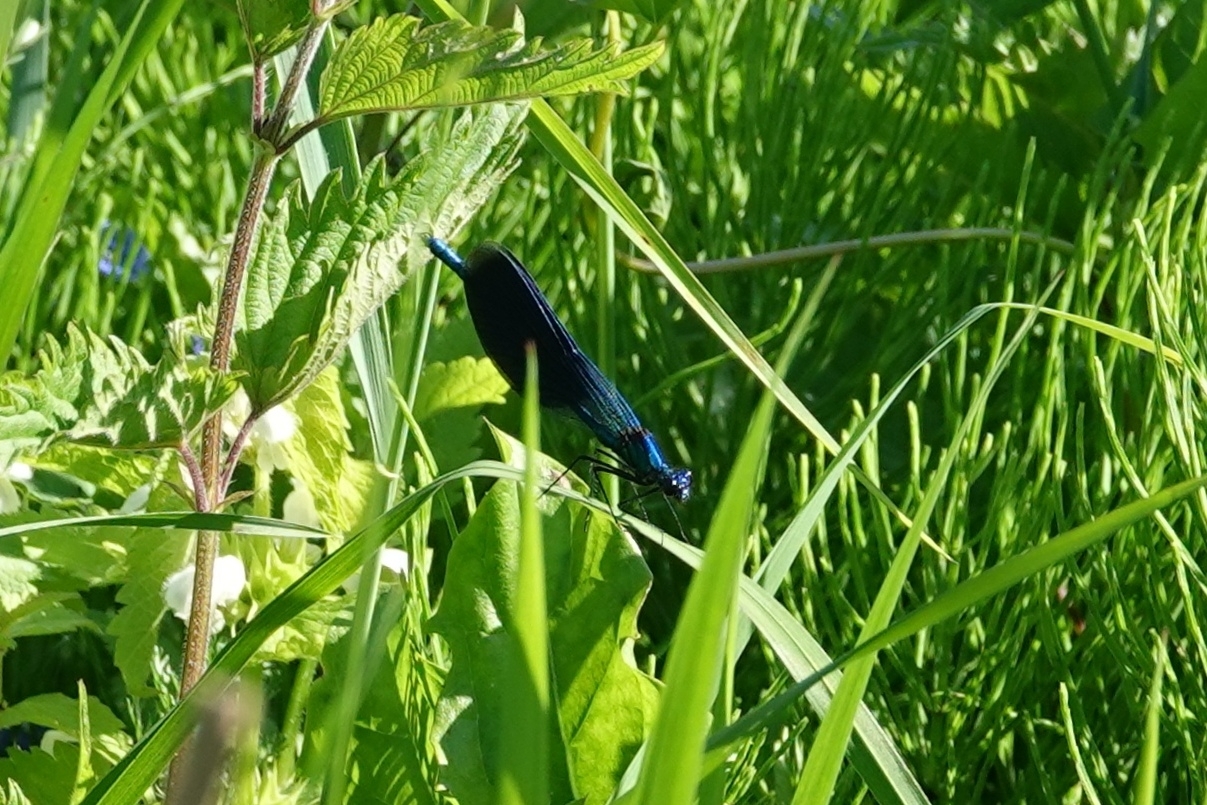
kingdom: Animalia
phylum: Arthropoda
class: Insecta
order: Odonata
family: Calopterygidae
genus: Calopteryx
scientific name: Calopteryx splendens
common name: Banded demoiselle
